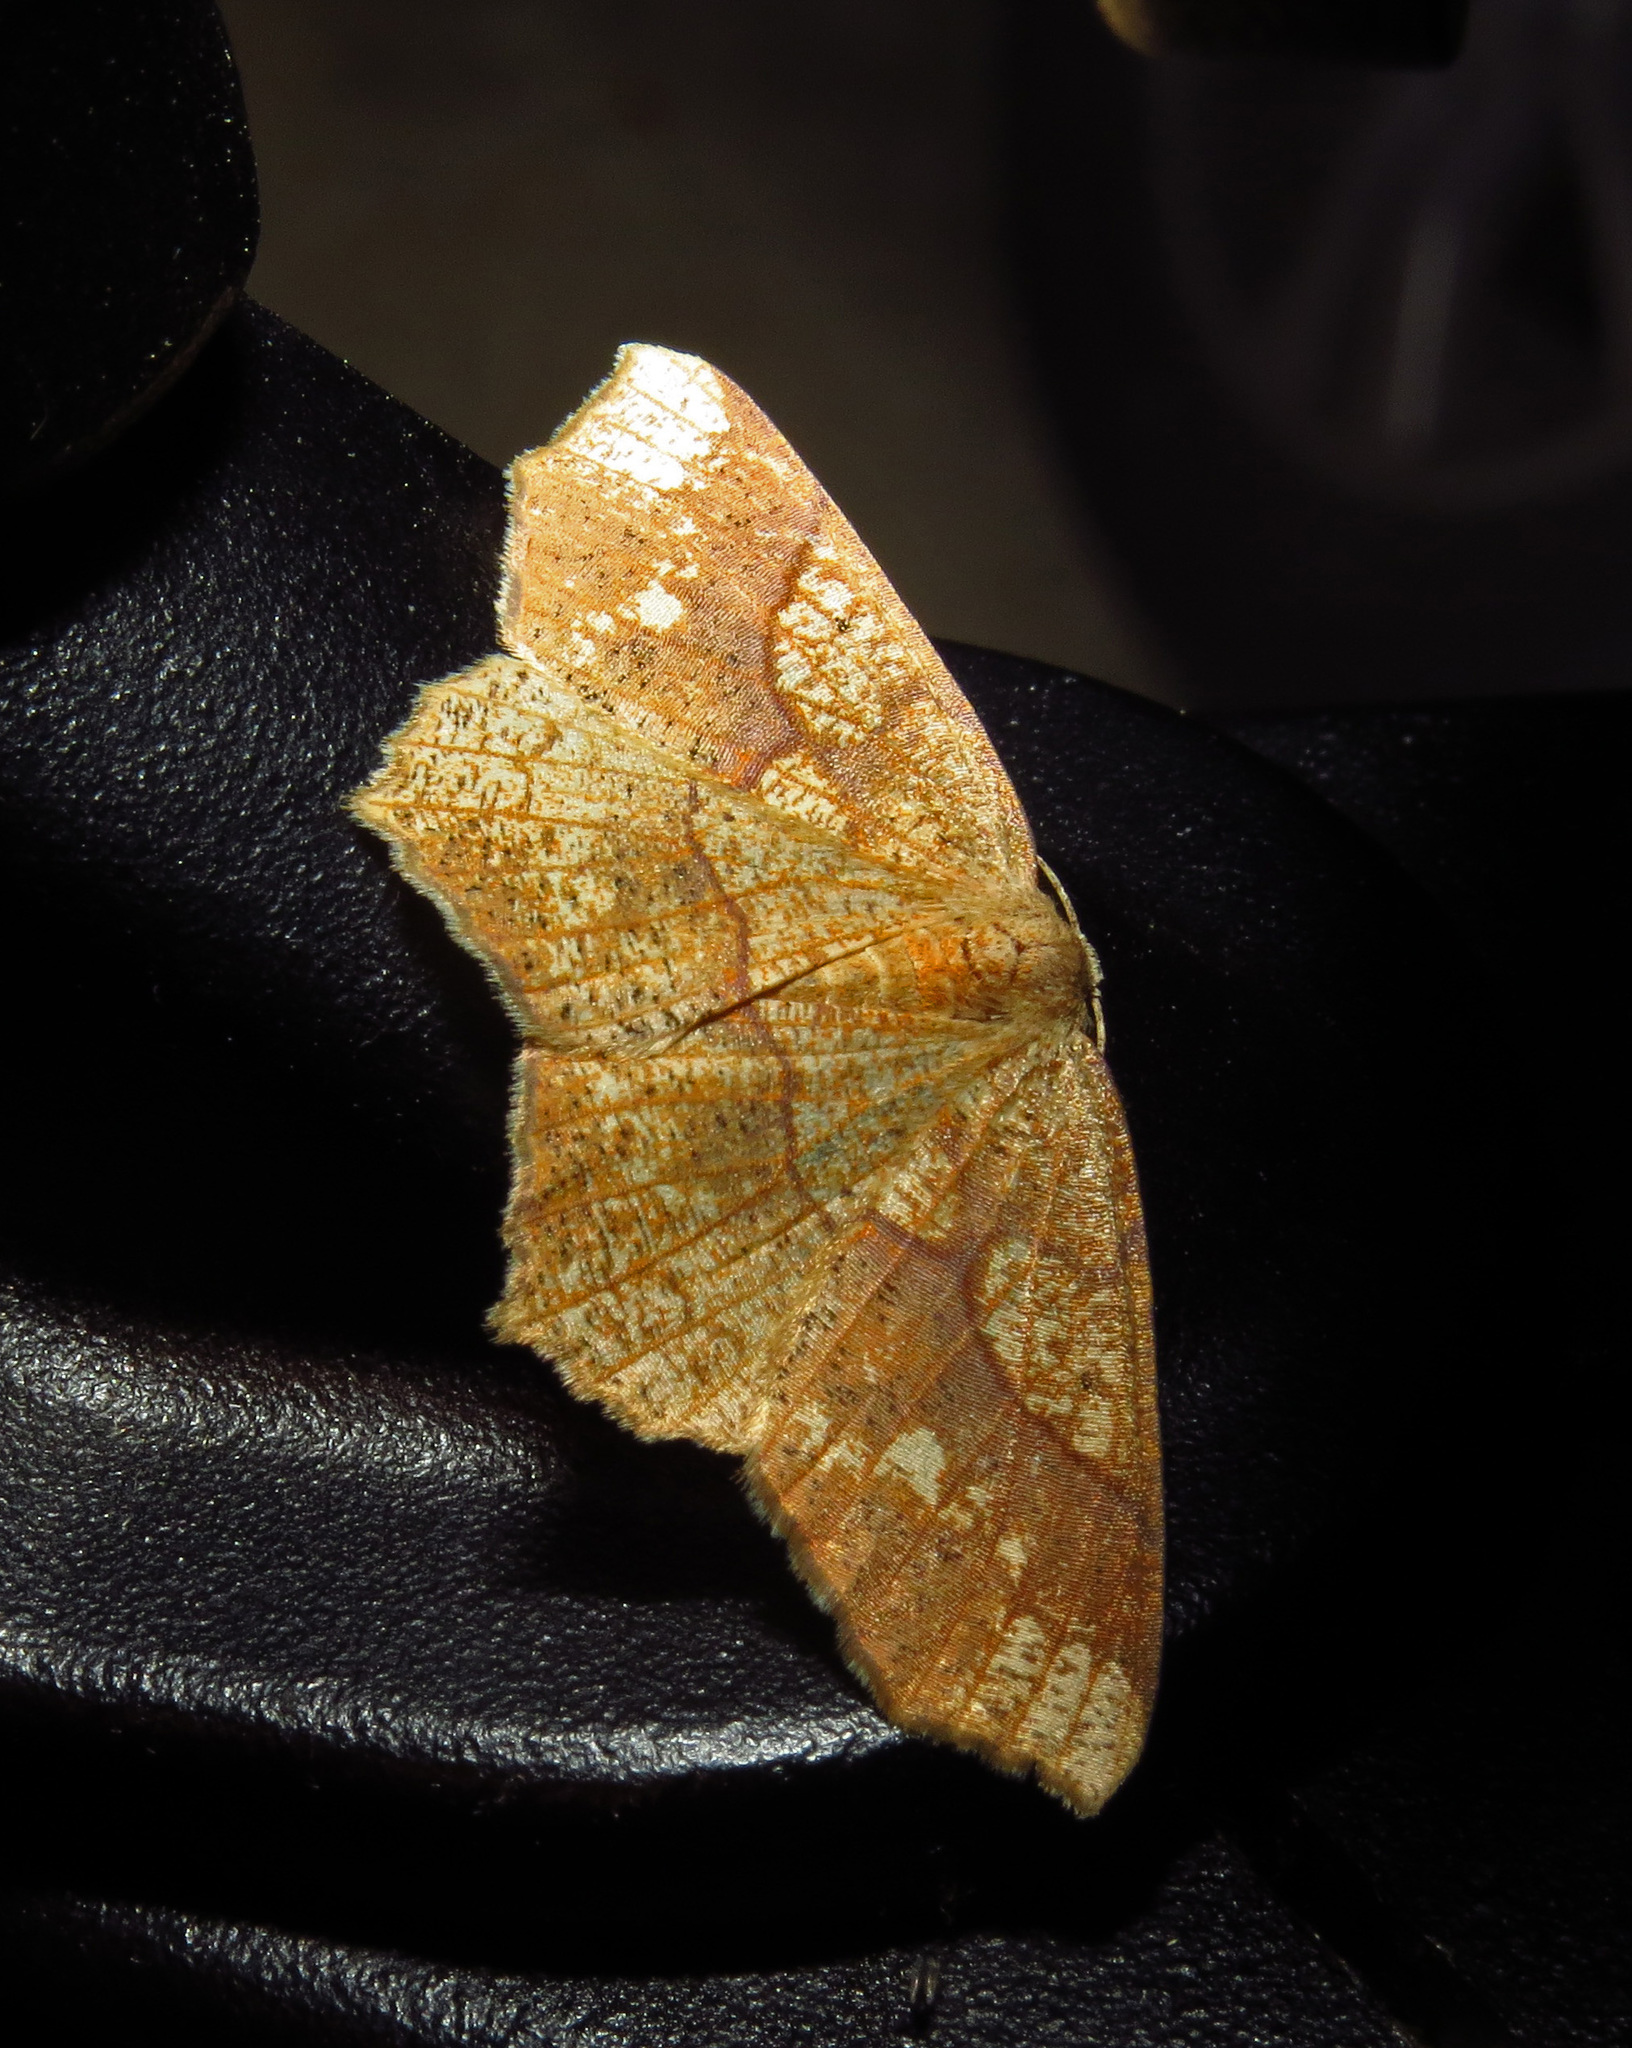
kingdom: Animalia
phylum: Arthropoda
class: Insecta
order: Lepidoptera
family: Geometridae
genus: Besma
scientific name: Besma quercivoraria
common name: Oak besma
